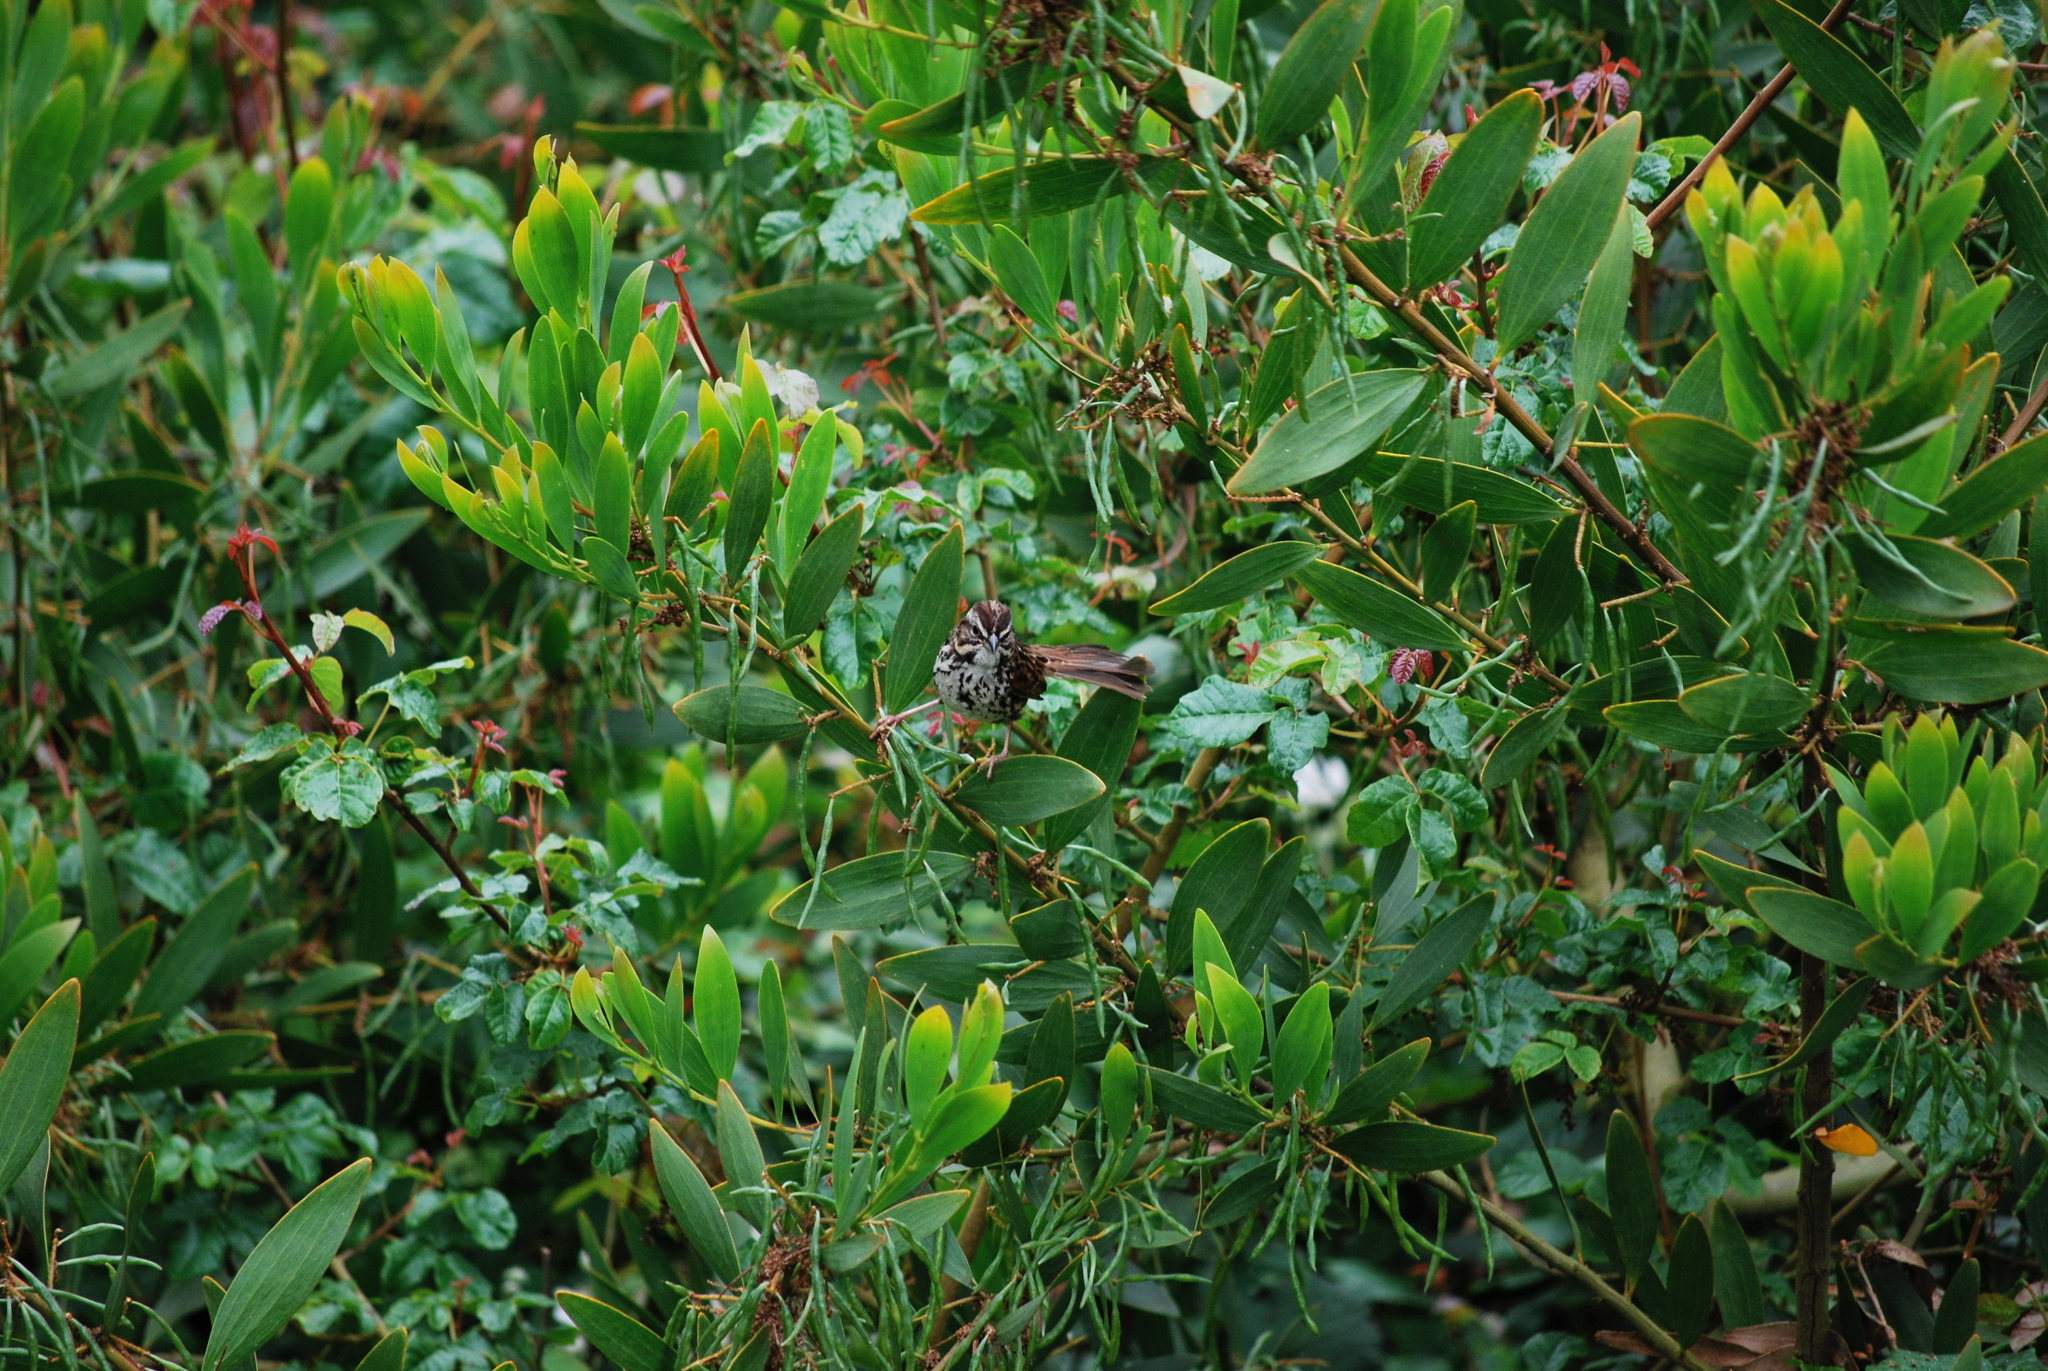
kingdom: Animalia
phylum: Chordata
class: Aves
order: Passeriformes
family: Passerellidae
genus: Melospiza
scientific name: Melospiza melodia
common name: Song sparrow
